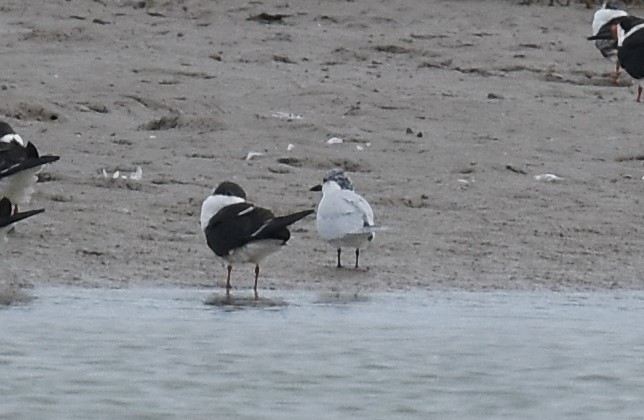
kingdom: Animalia
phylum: Chordata
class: Aves
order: Charadriiformes
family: Laridae
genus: Gelochelidon
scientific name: Gelochelidon nilotica
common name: Gull-billed tern
